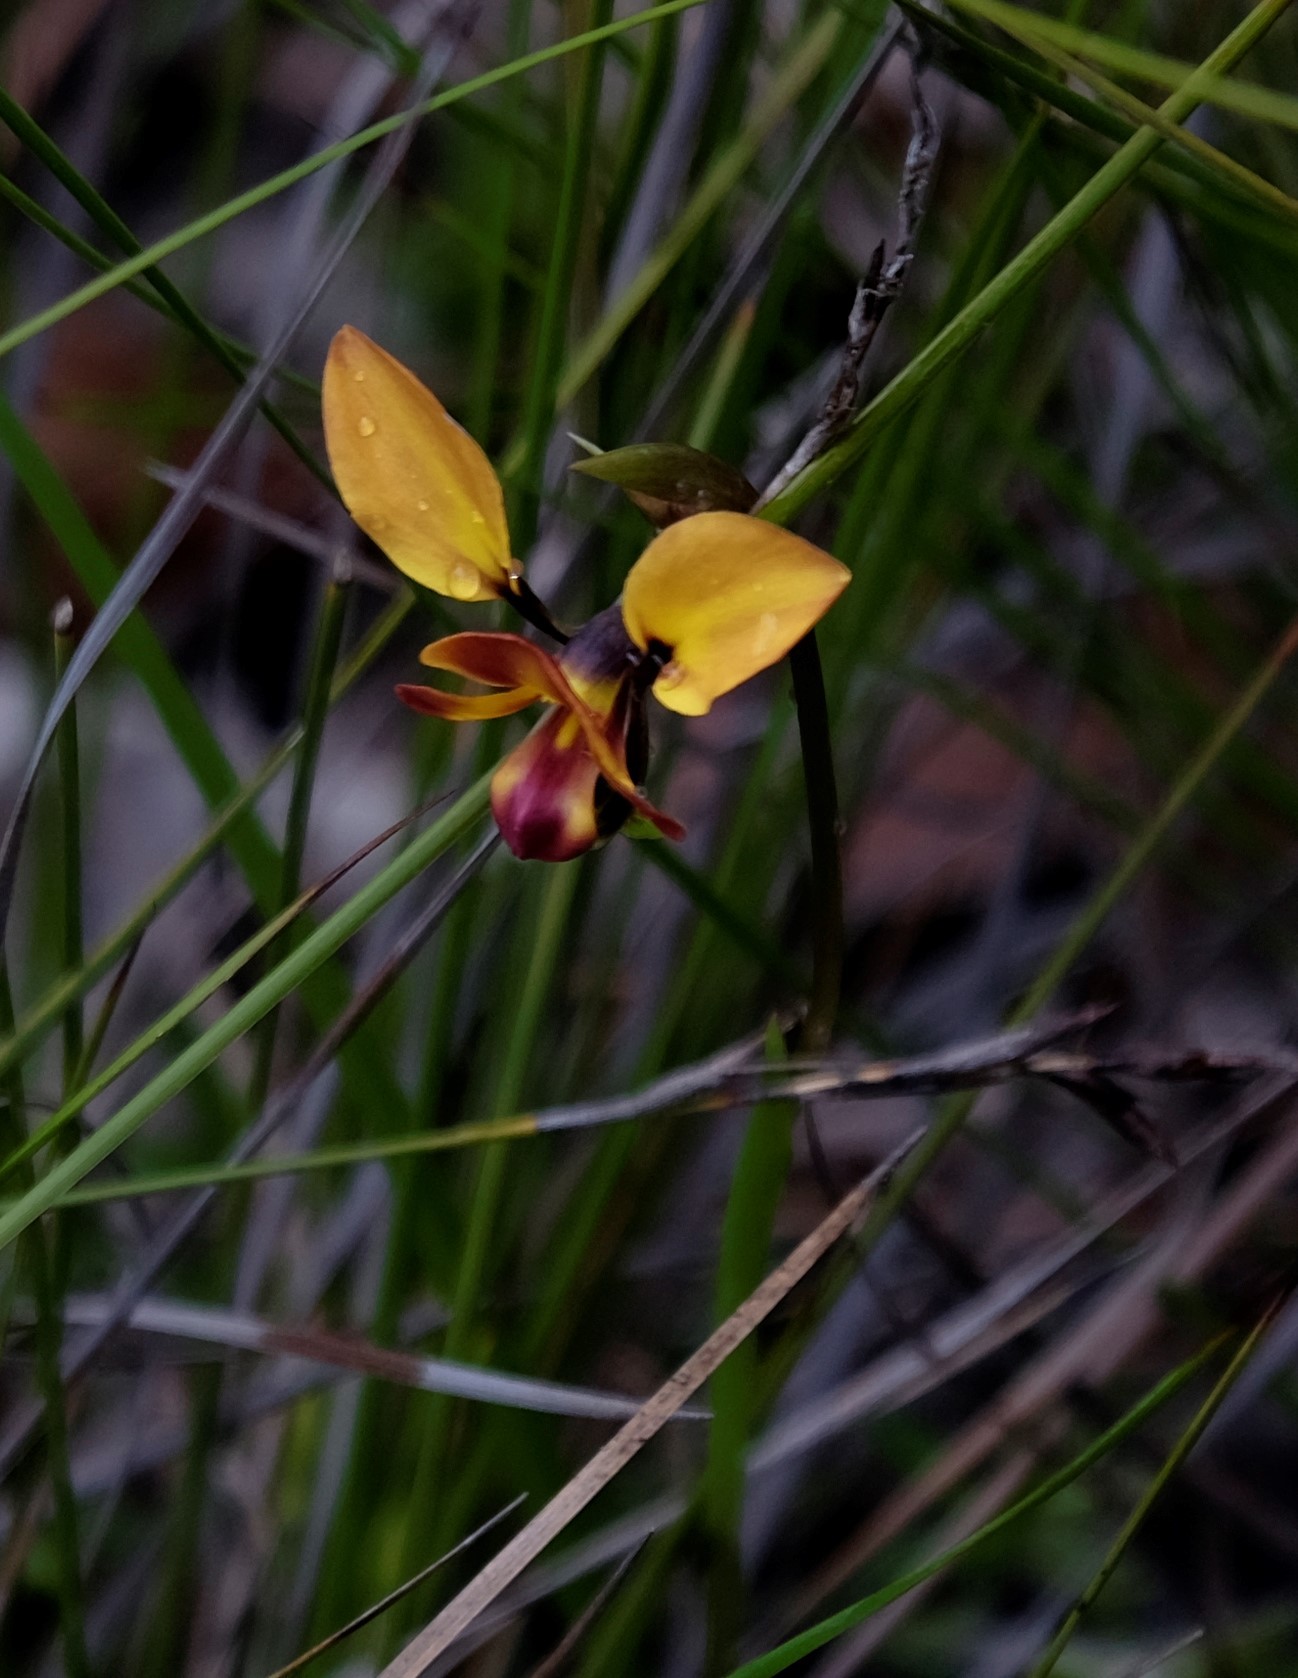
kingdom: Plantae
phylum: Tracheophyta
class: Liliopsida
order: Asparagales
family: Orchidaceae
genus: Diuris
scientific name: Diuris orientis
